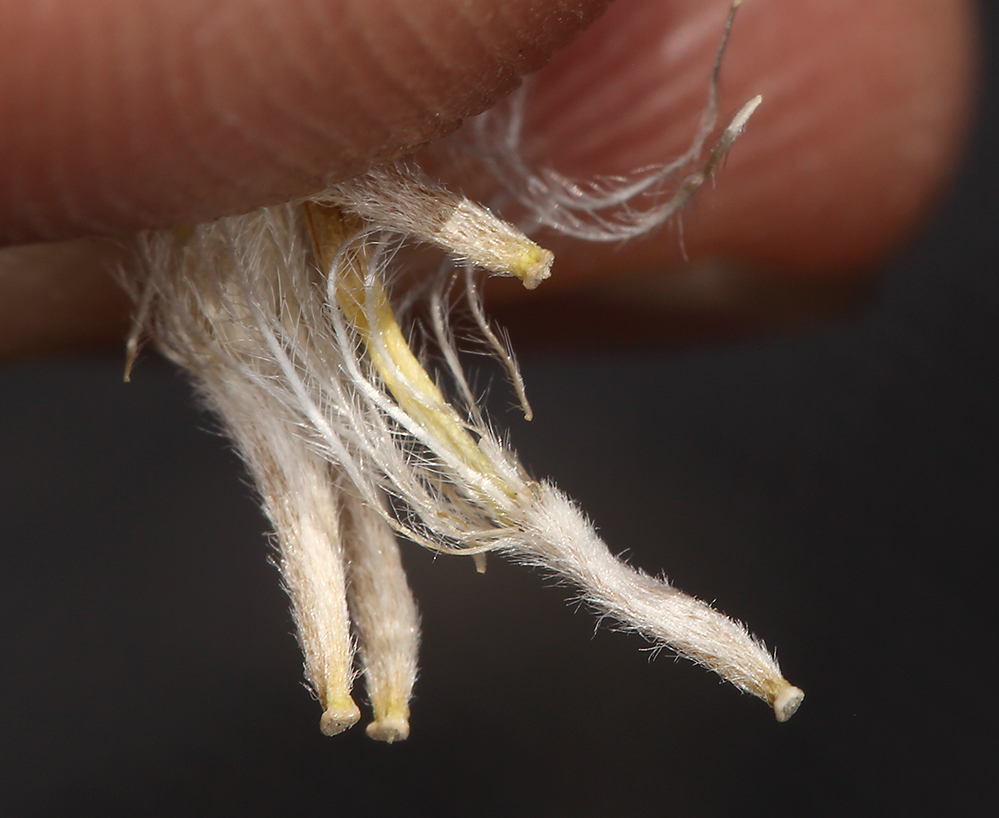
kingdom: Plantae
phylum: Tracheophyta
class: Magnoliopsida
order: Asterales
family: Asteraceae
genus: Raillardella
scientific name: Raillardella argentea
